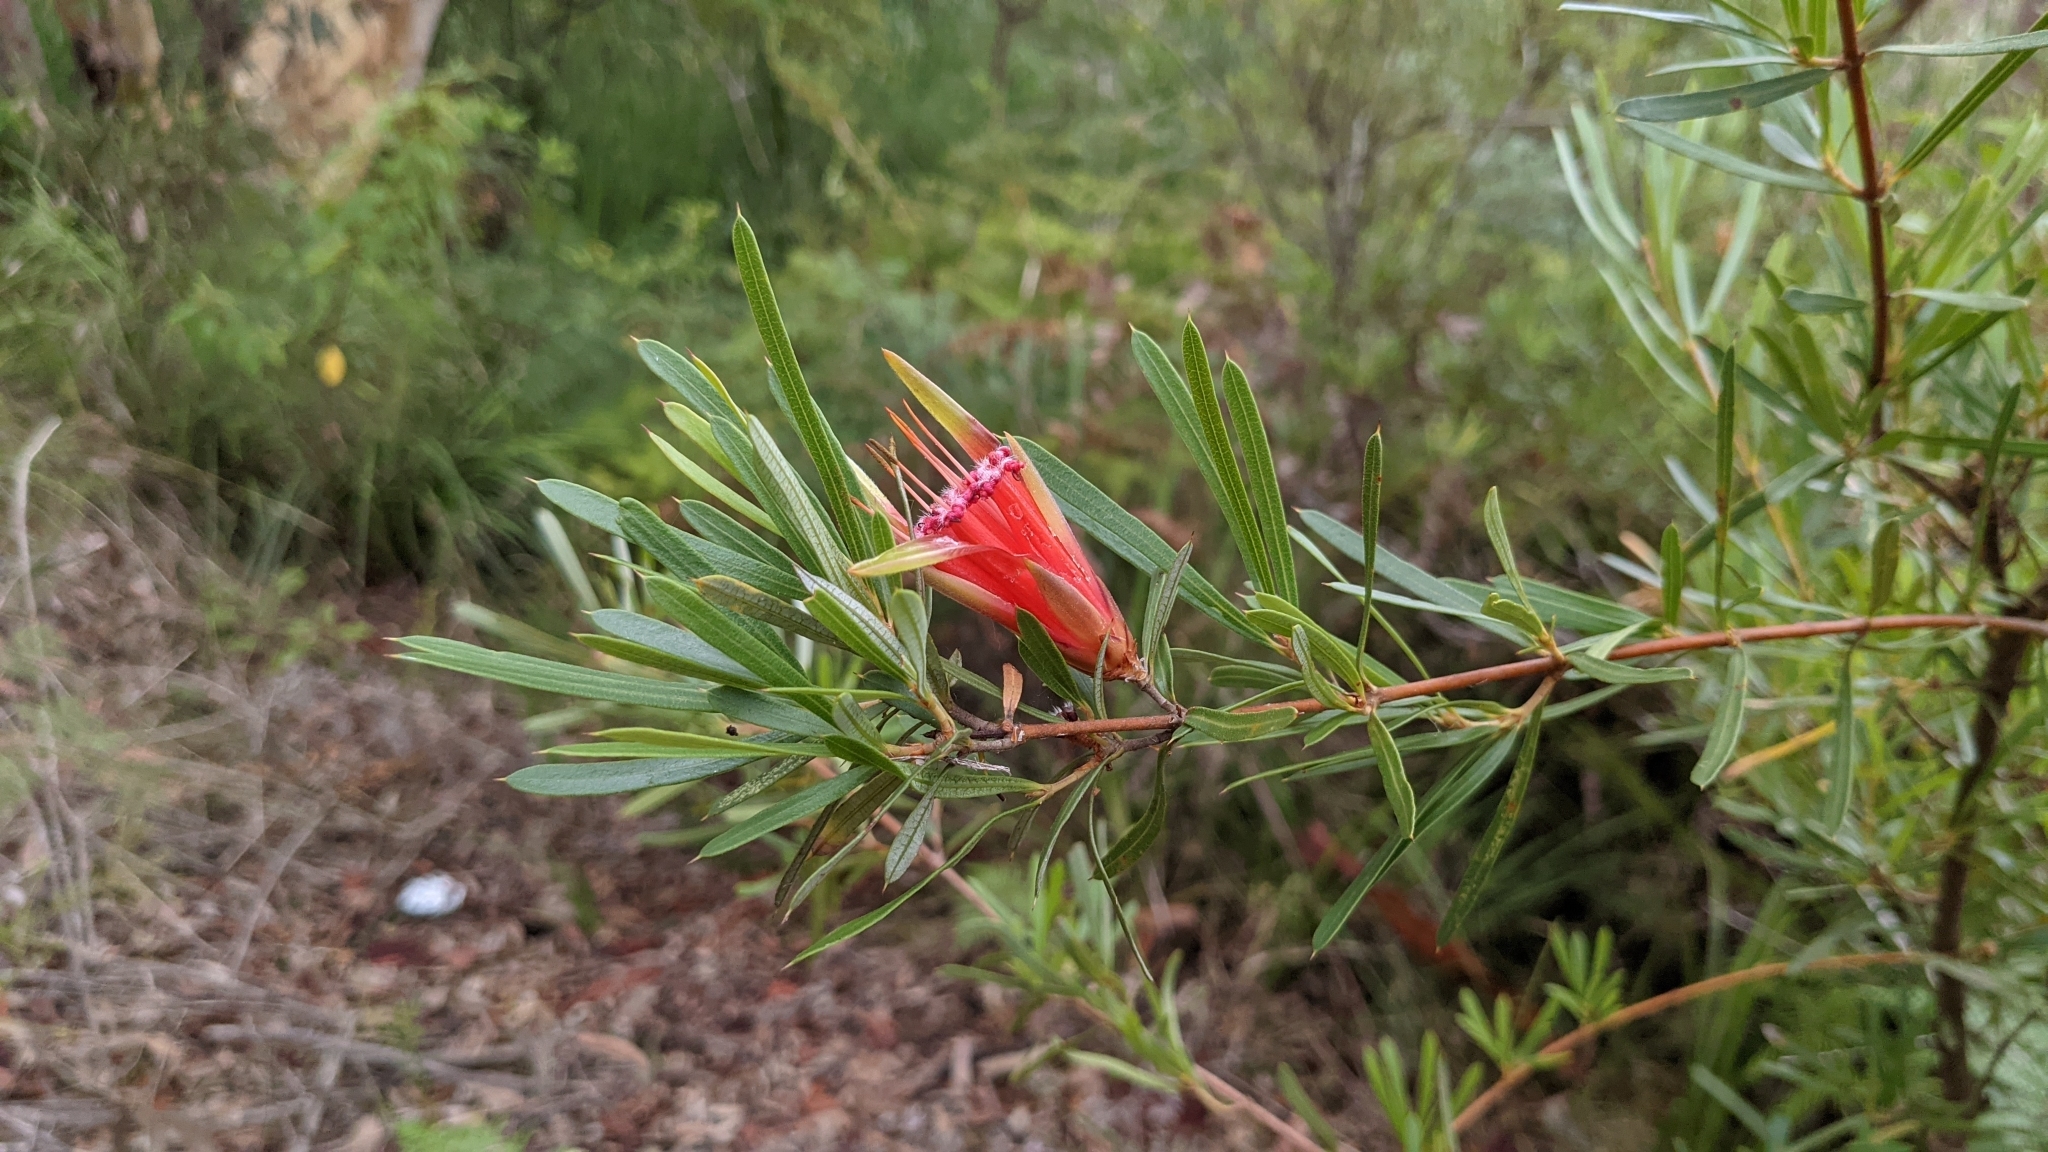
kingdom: Plantae
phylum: Tracheophyta
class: Magnoliopsida
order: Proteales
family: Proteaceae
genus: Lambertia
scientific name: Lambertia formosa
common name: Mountain-devil
